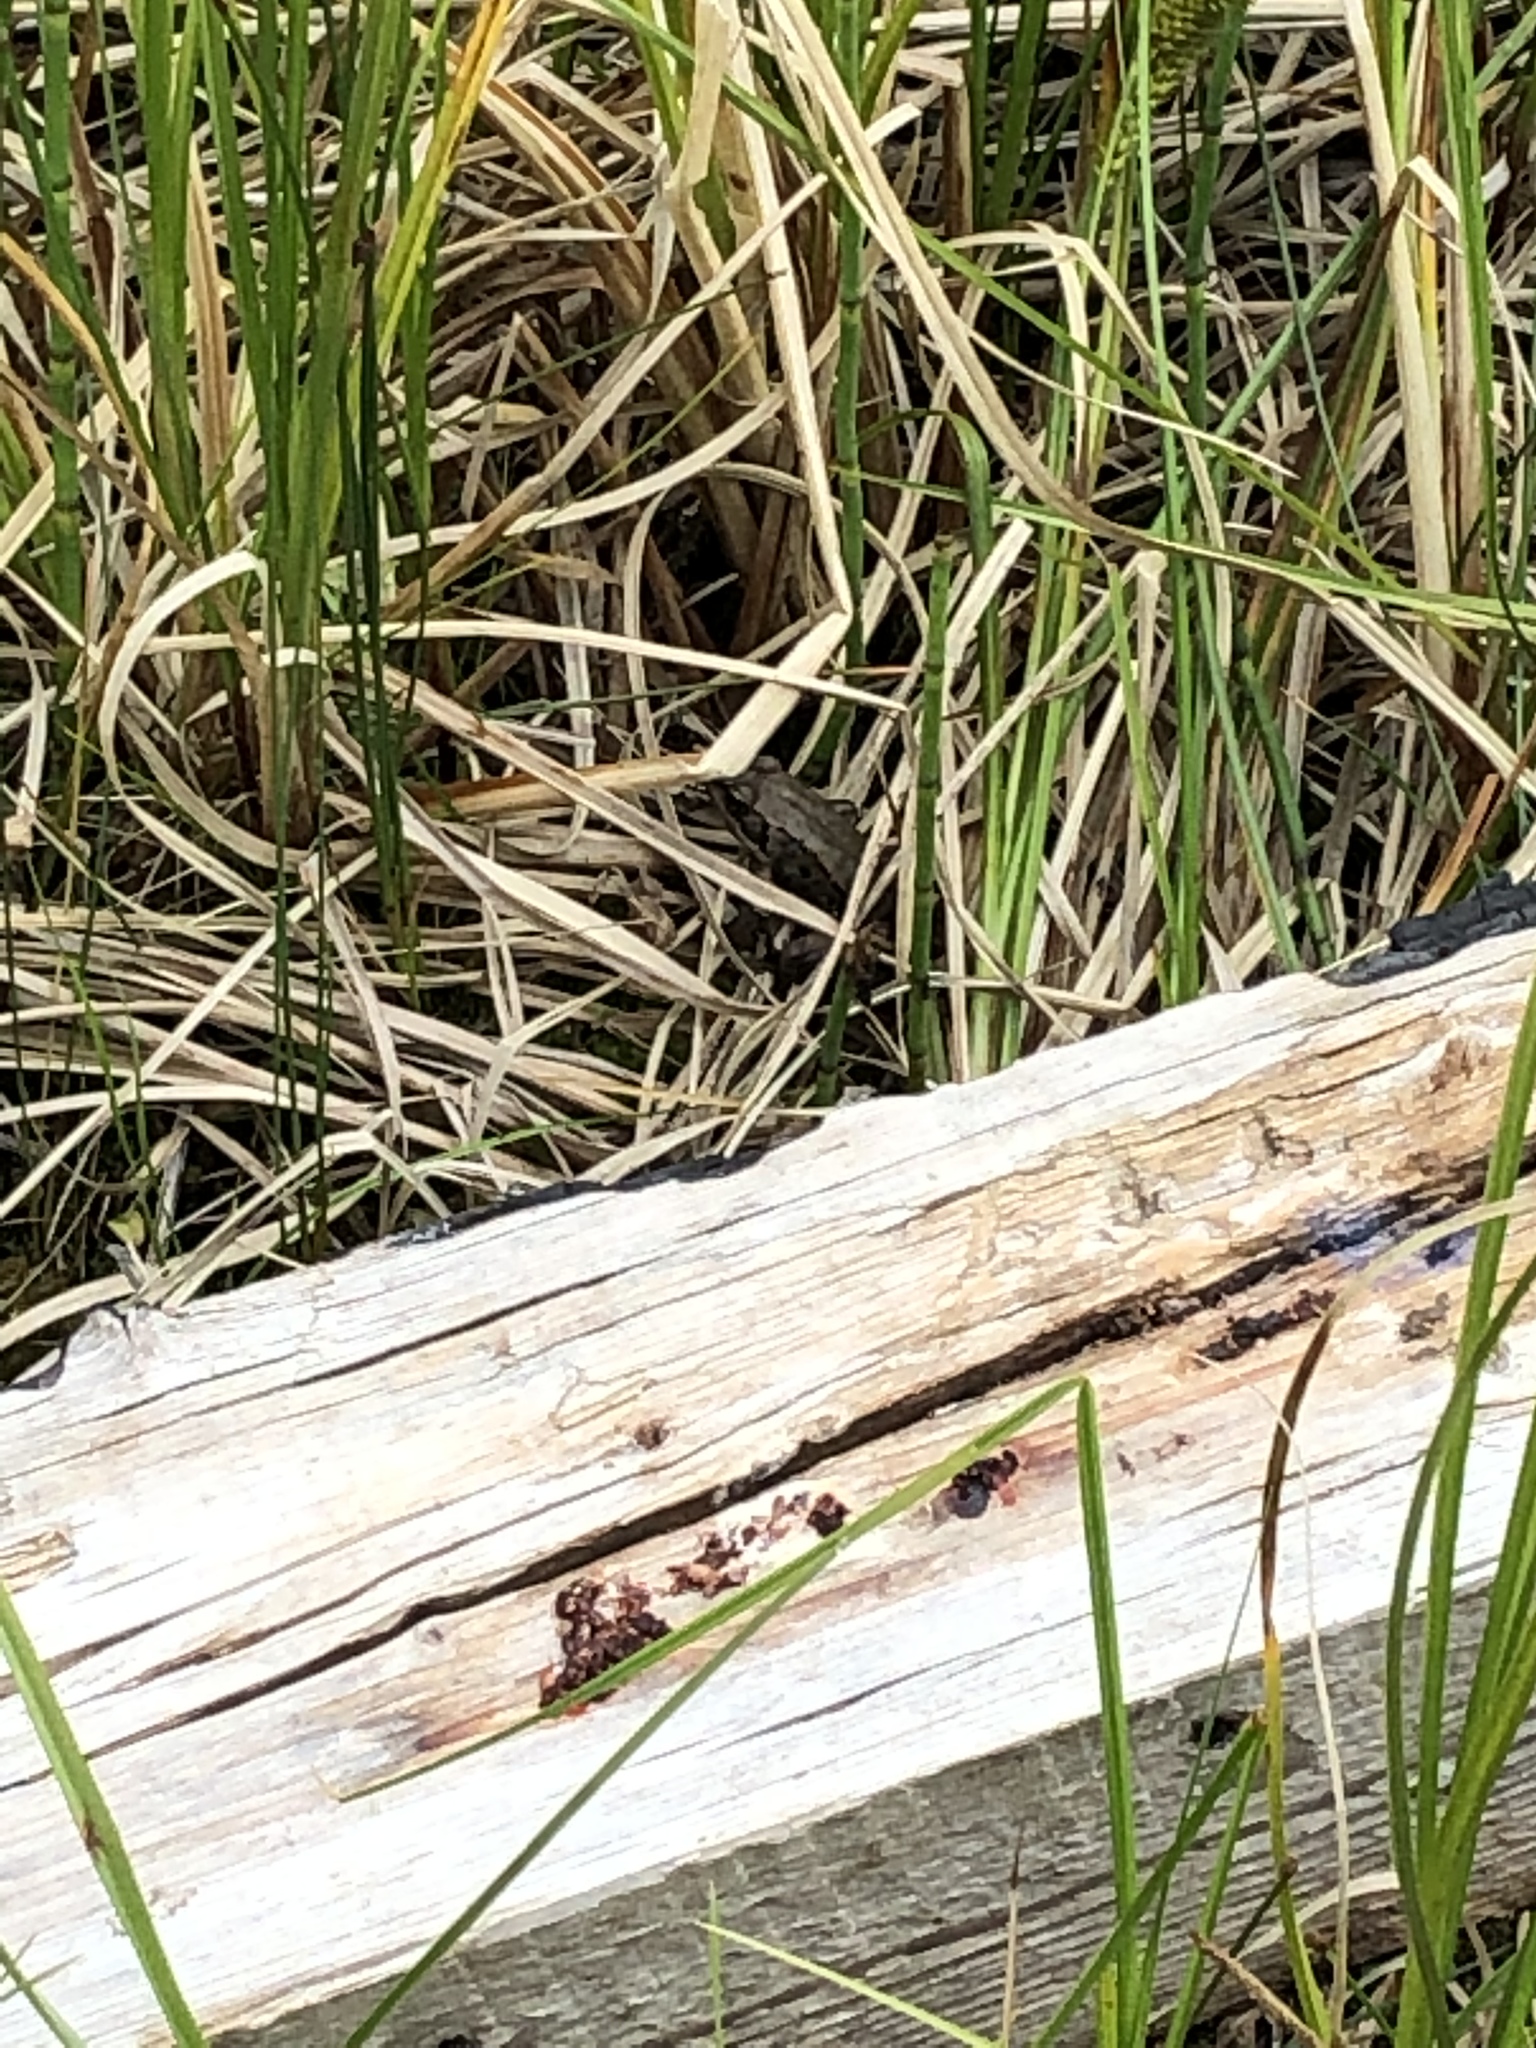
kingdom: Animalia
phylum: Chordata
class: Amphibia
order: Anura
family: Ranidae
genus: Lithobates
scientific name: Lithobates sylvaticus
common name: Wood frog
